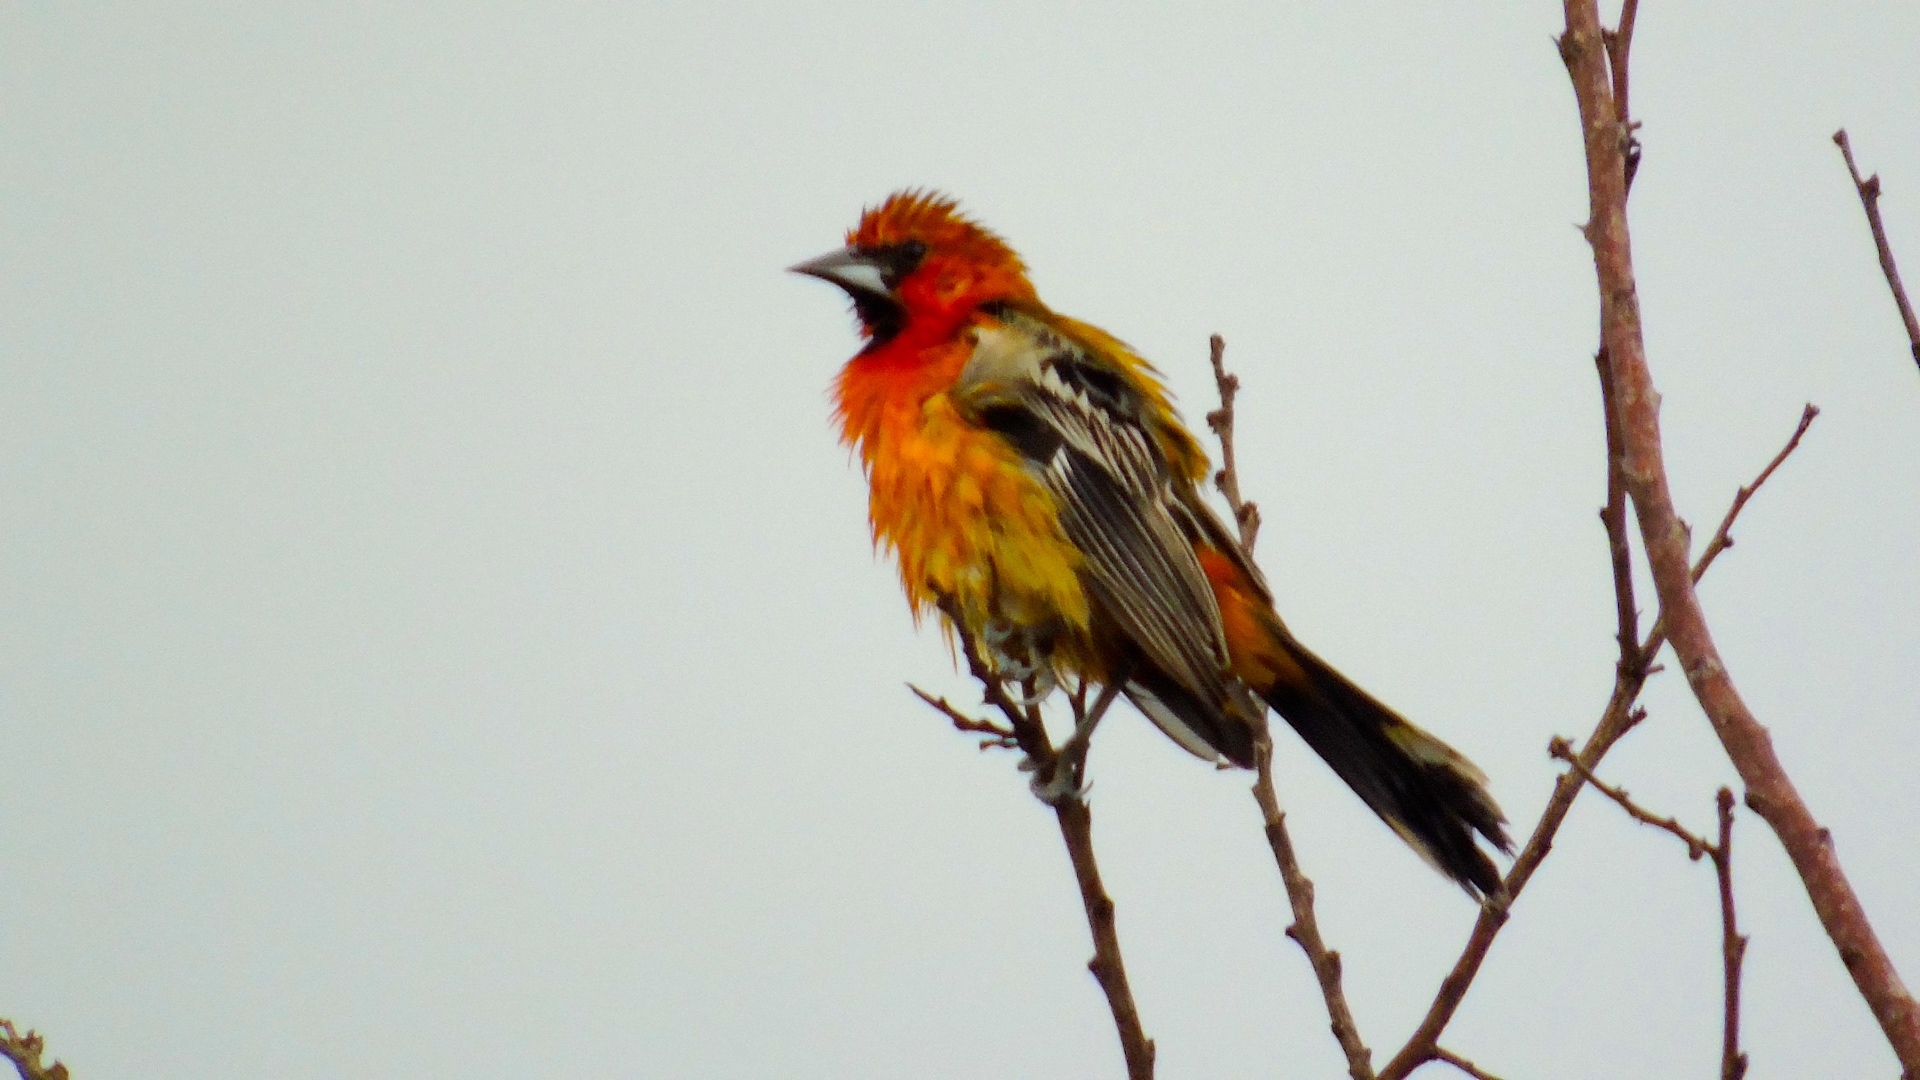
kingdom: Animalia
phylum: Chordata
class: Aves
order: Passeriformes
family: Icteridae
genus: Icterus
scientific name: Icterus pustulatus
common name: Streak-backed oriole
